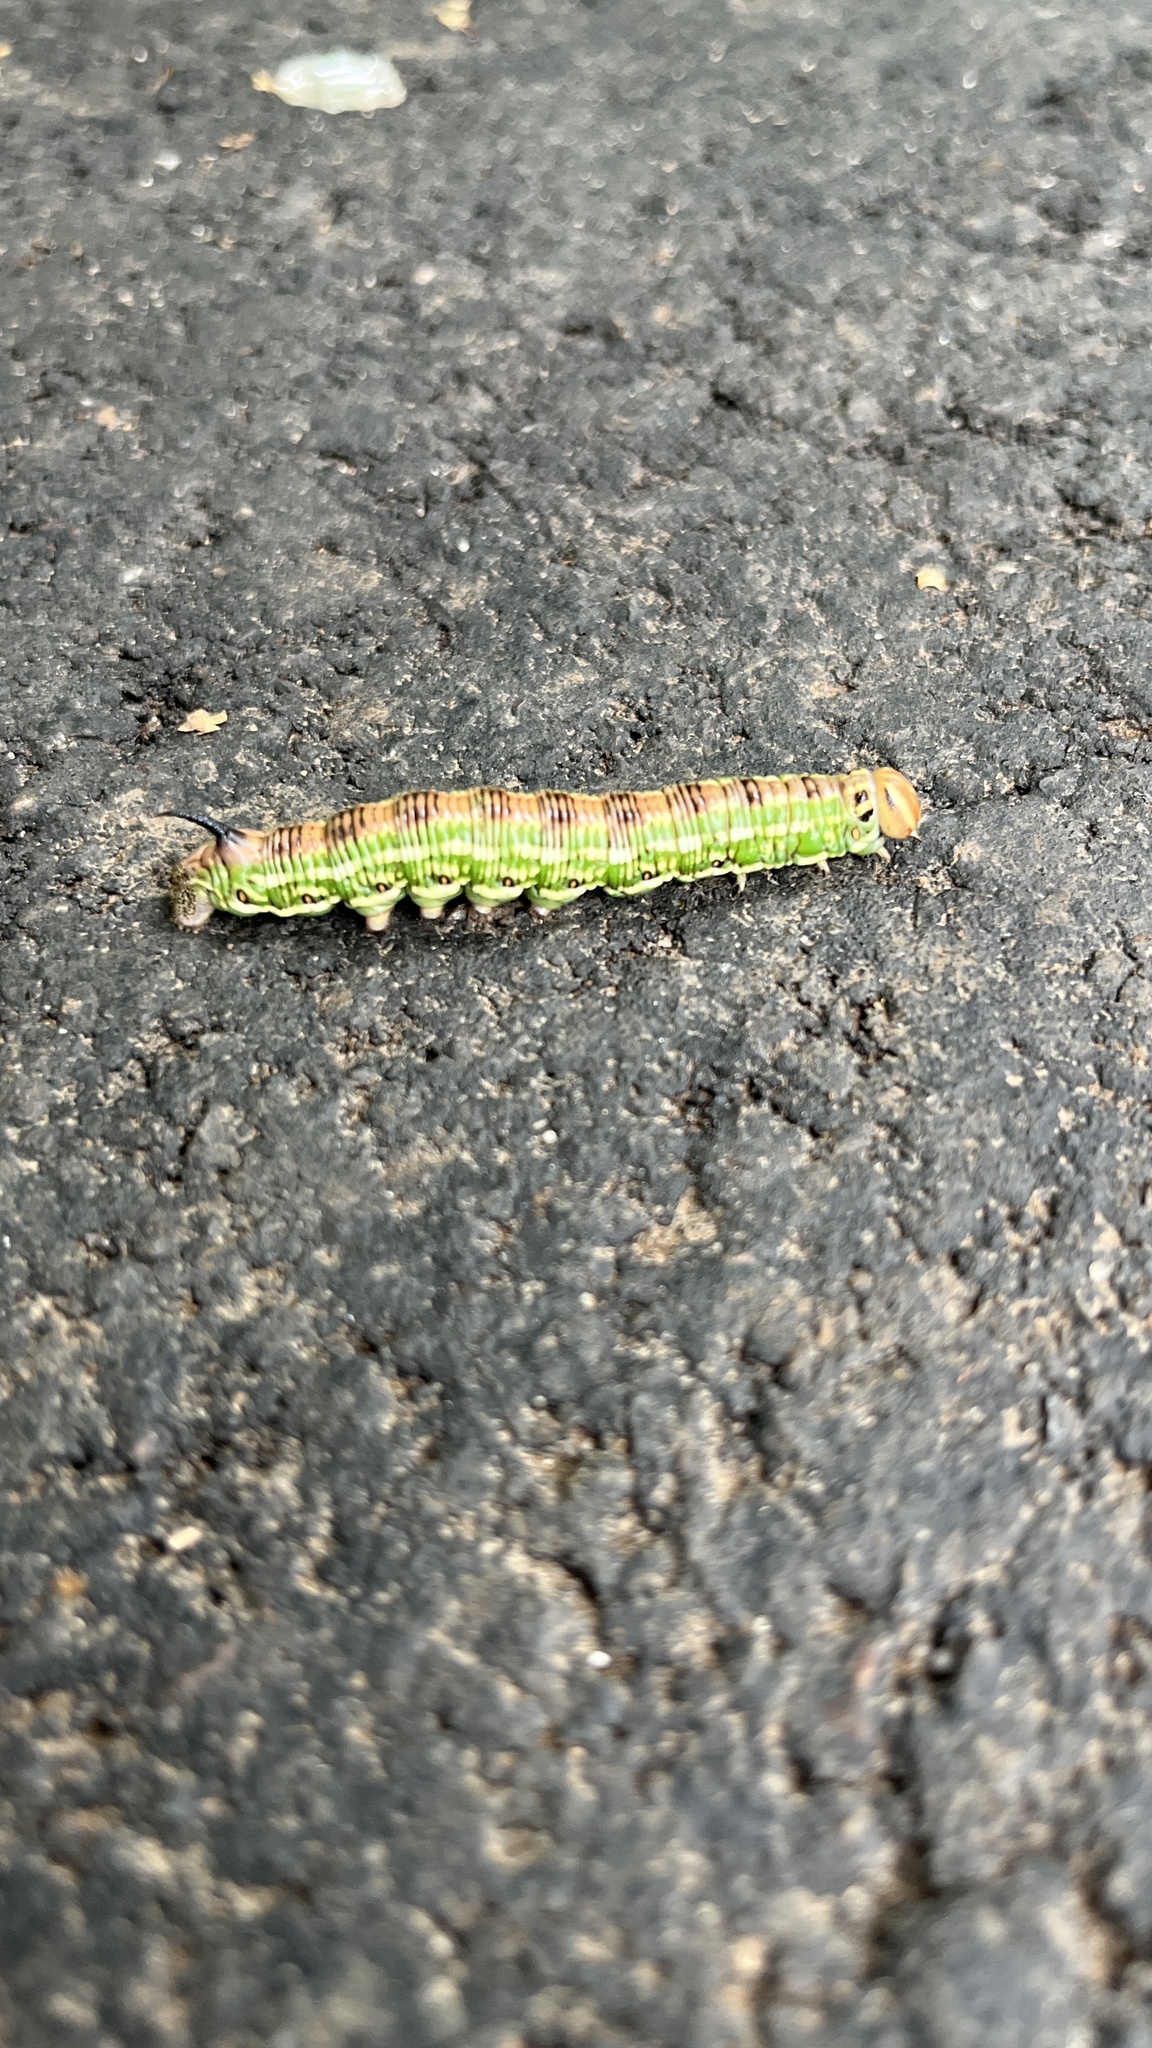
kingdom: Animalia
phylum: Arthropoda
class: Insecta
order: Lepidoptera
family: Sphingidae
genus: Sphinx
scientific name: Sphinx pinastri
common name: Pine hawk-moth
